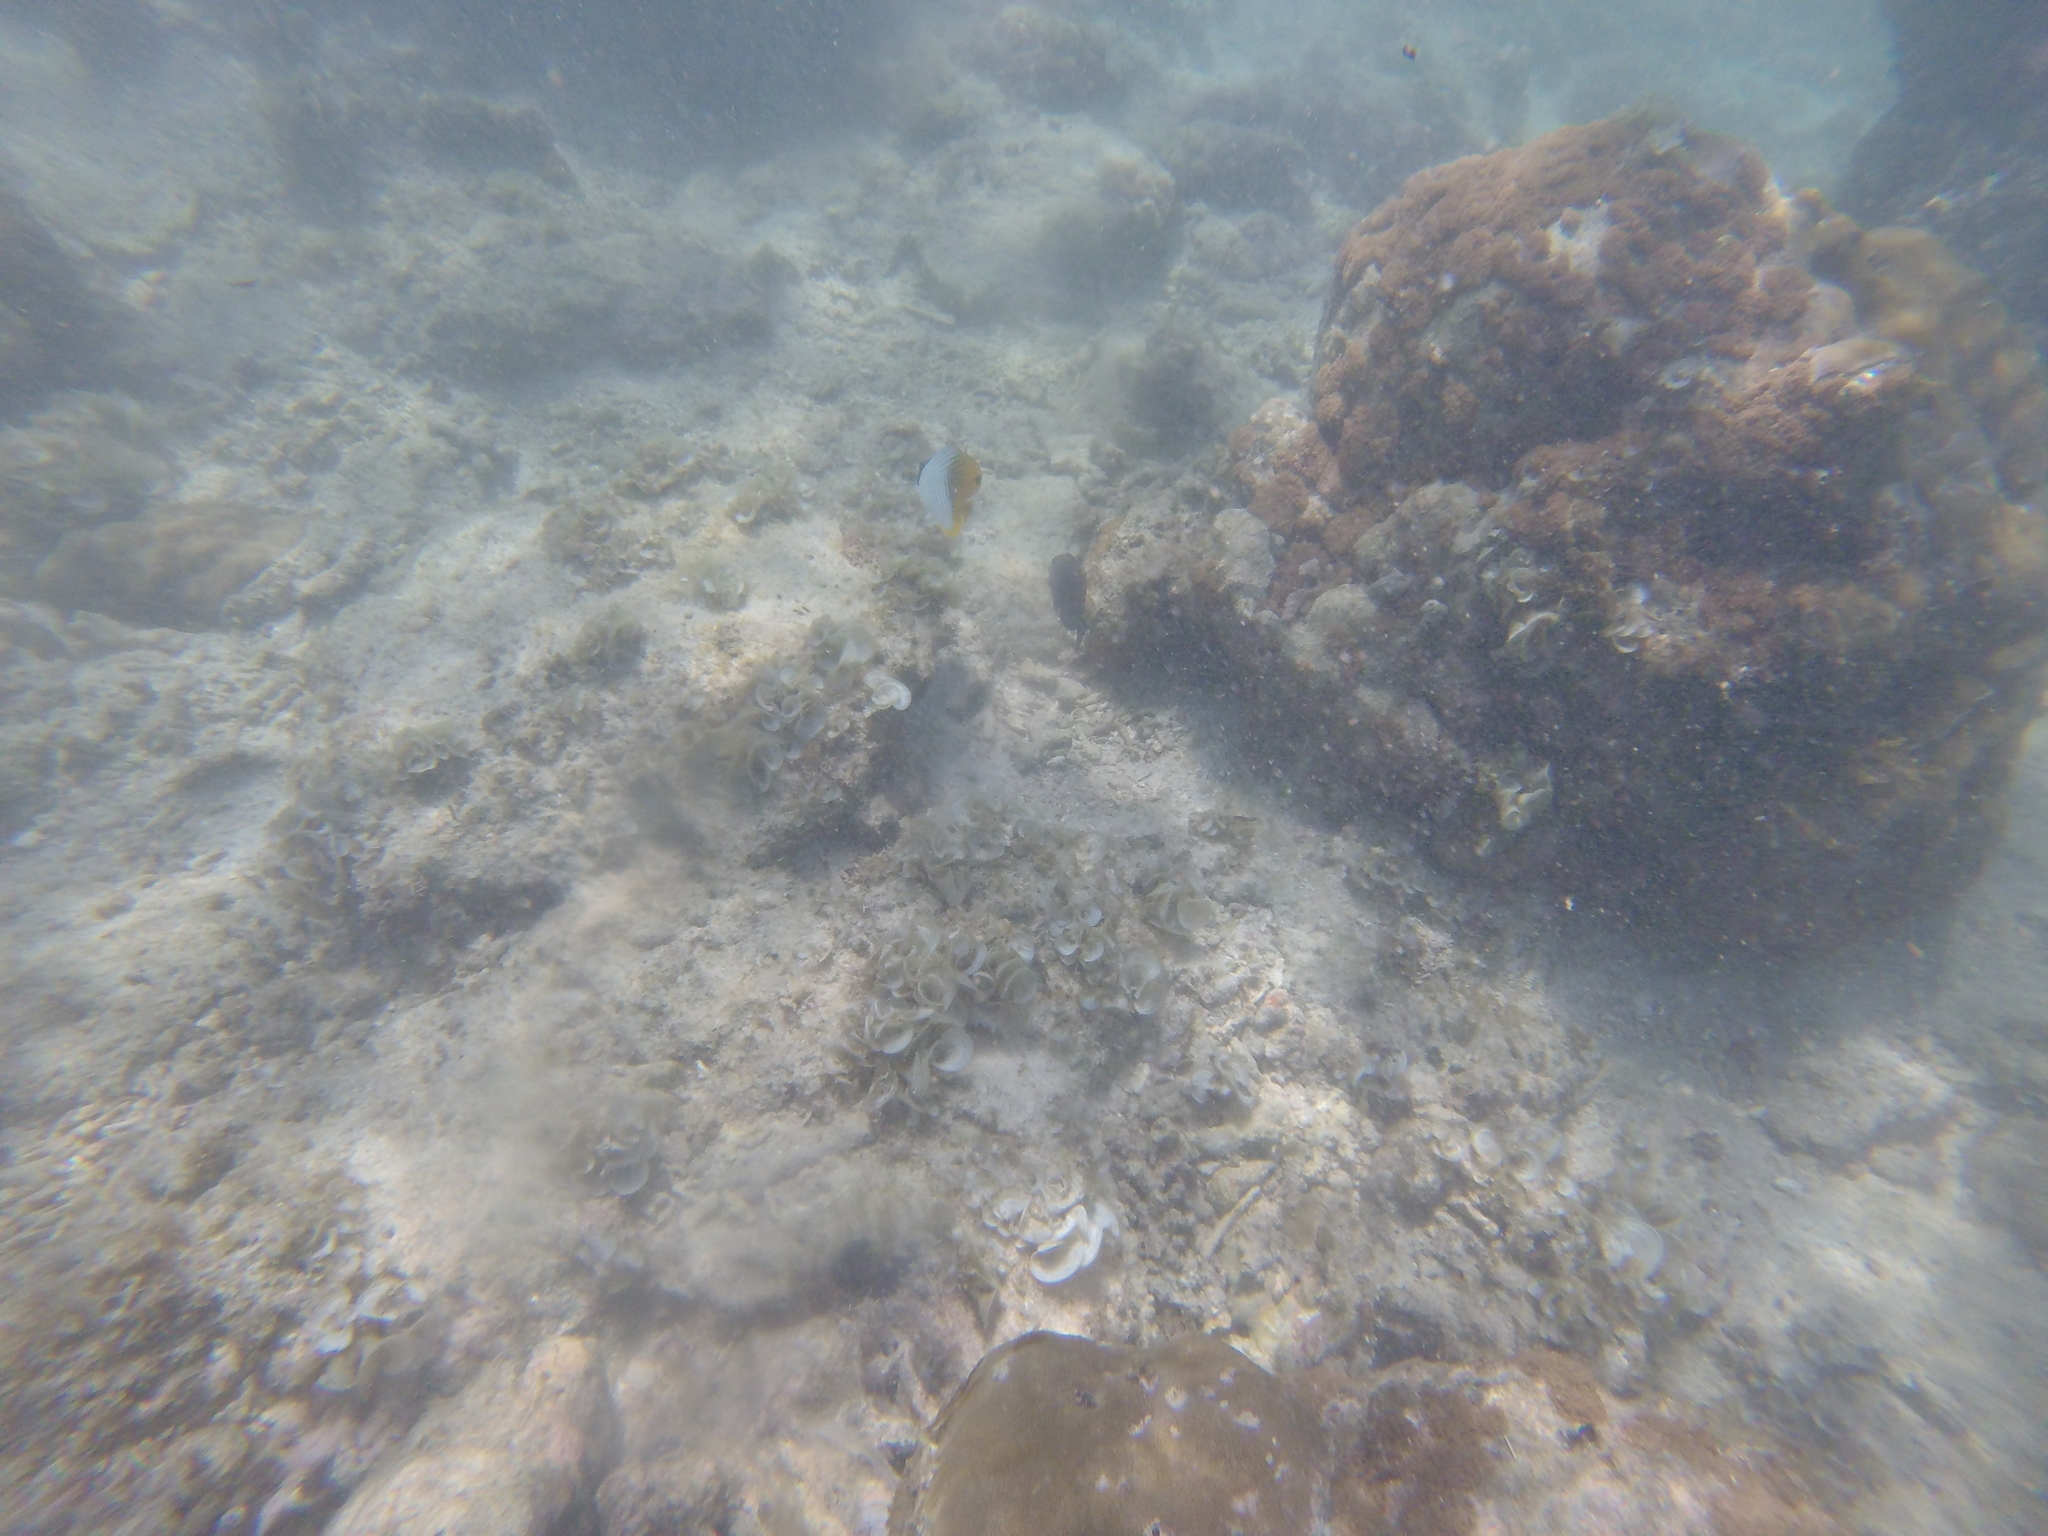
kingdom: Animalia
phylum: Chordata
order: Perciformes
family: Chaetodontidae
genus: Chaetodon
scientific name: Chaetodon auriga
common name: Threadfin butterflyfish
